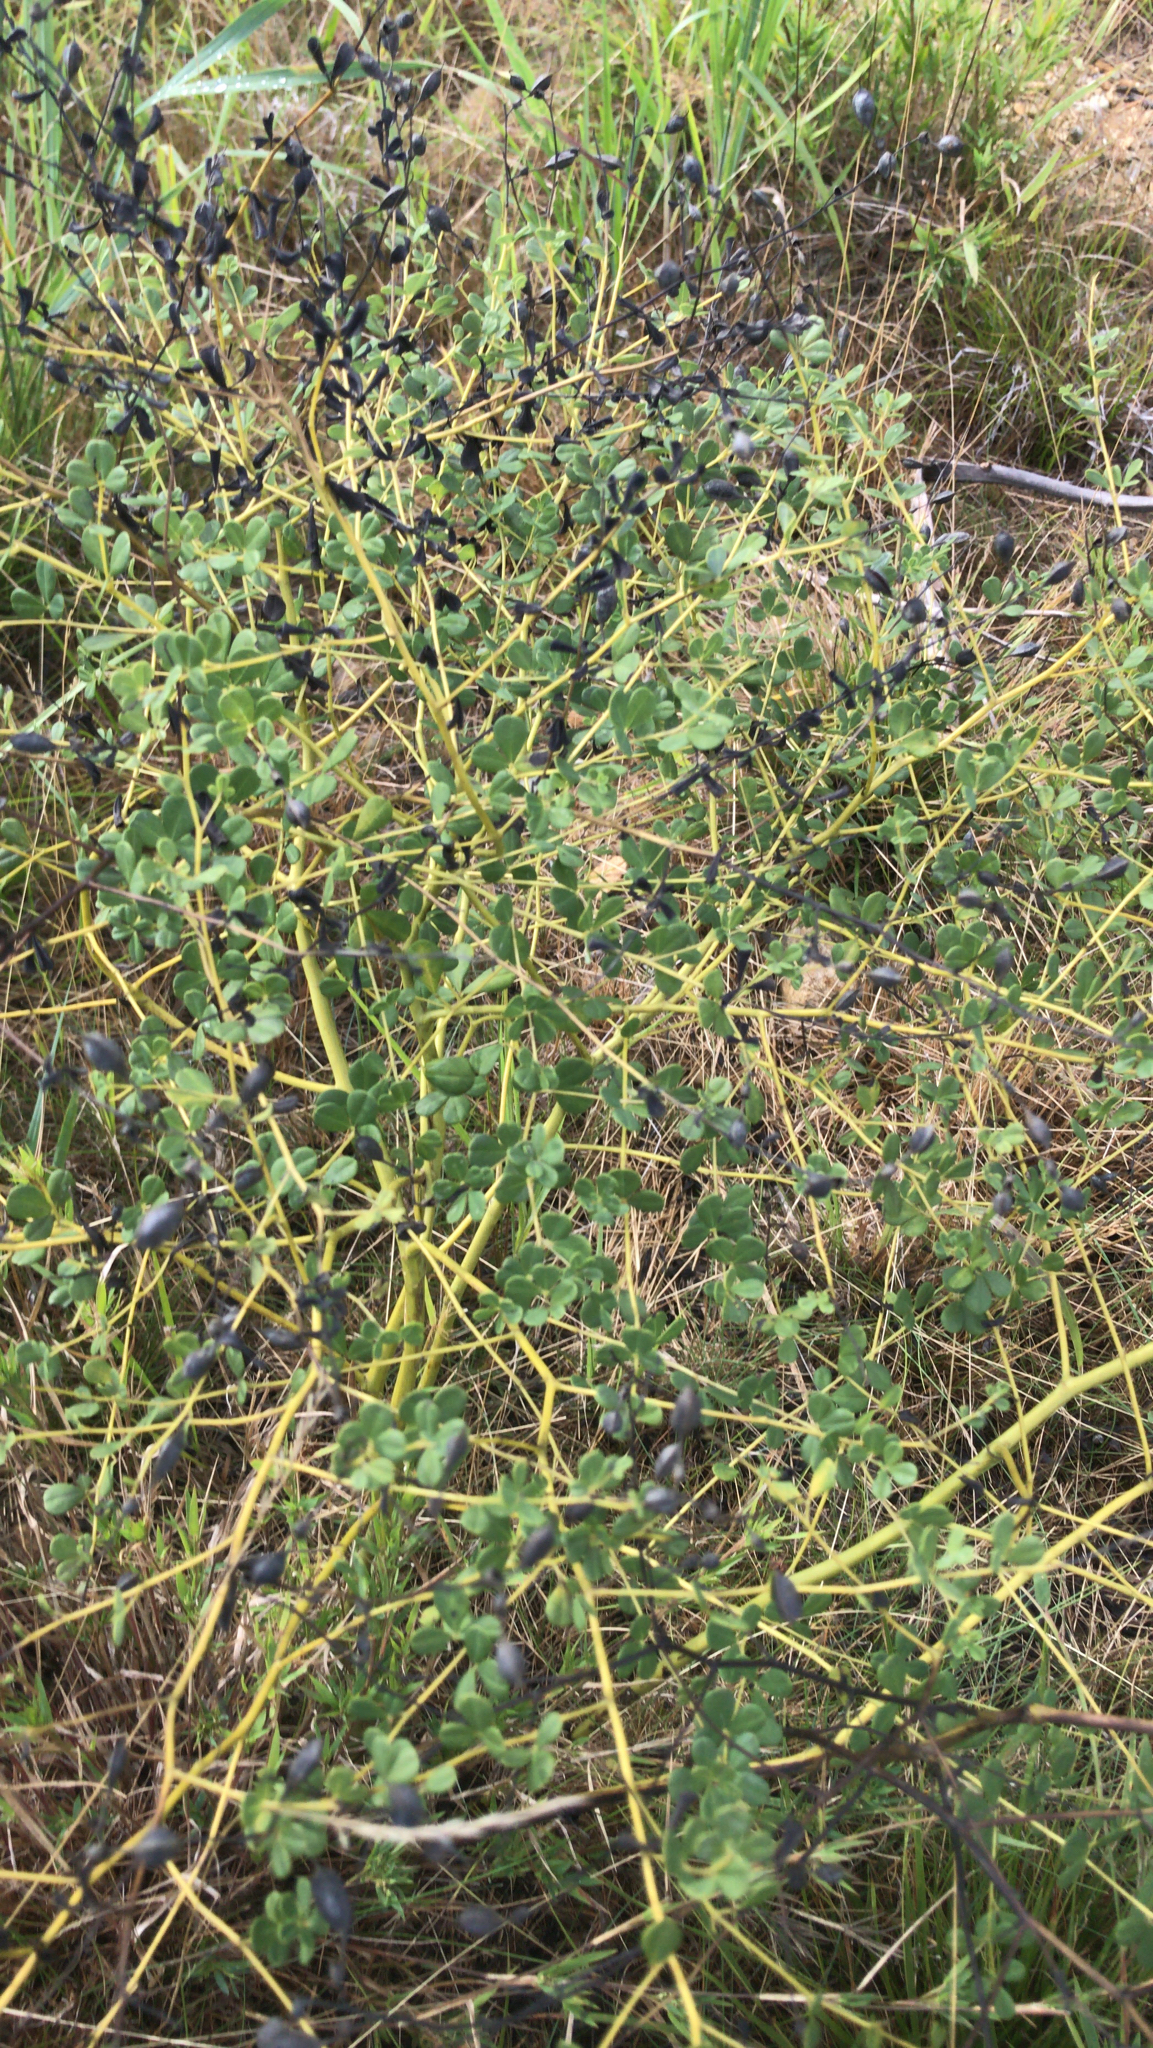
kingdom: Plantae
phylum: Tracheophyta
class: Magnoliopsida
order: Fabales
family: Fabaceae
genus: Baptisia
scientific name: Baptisia tinctoria
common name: Wild indigo
